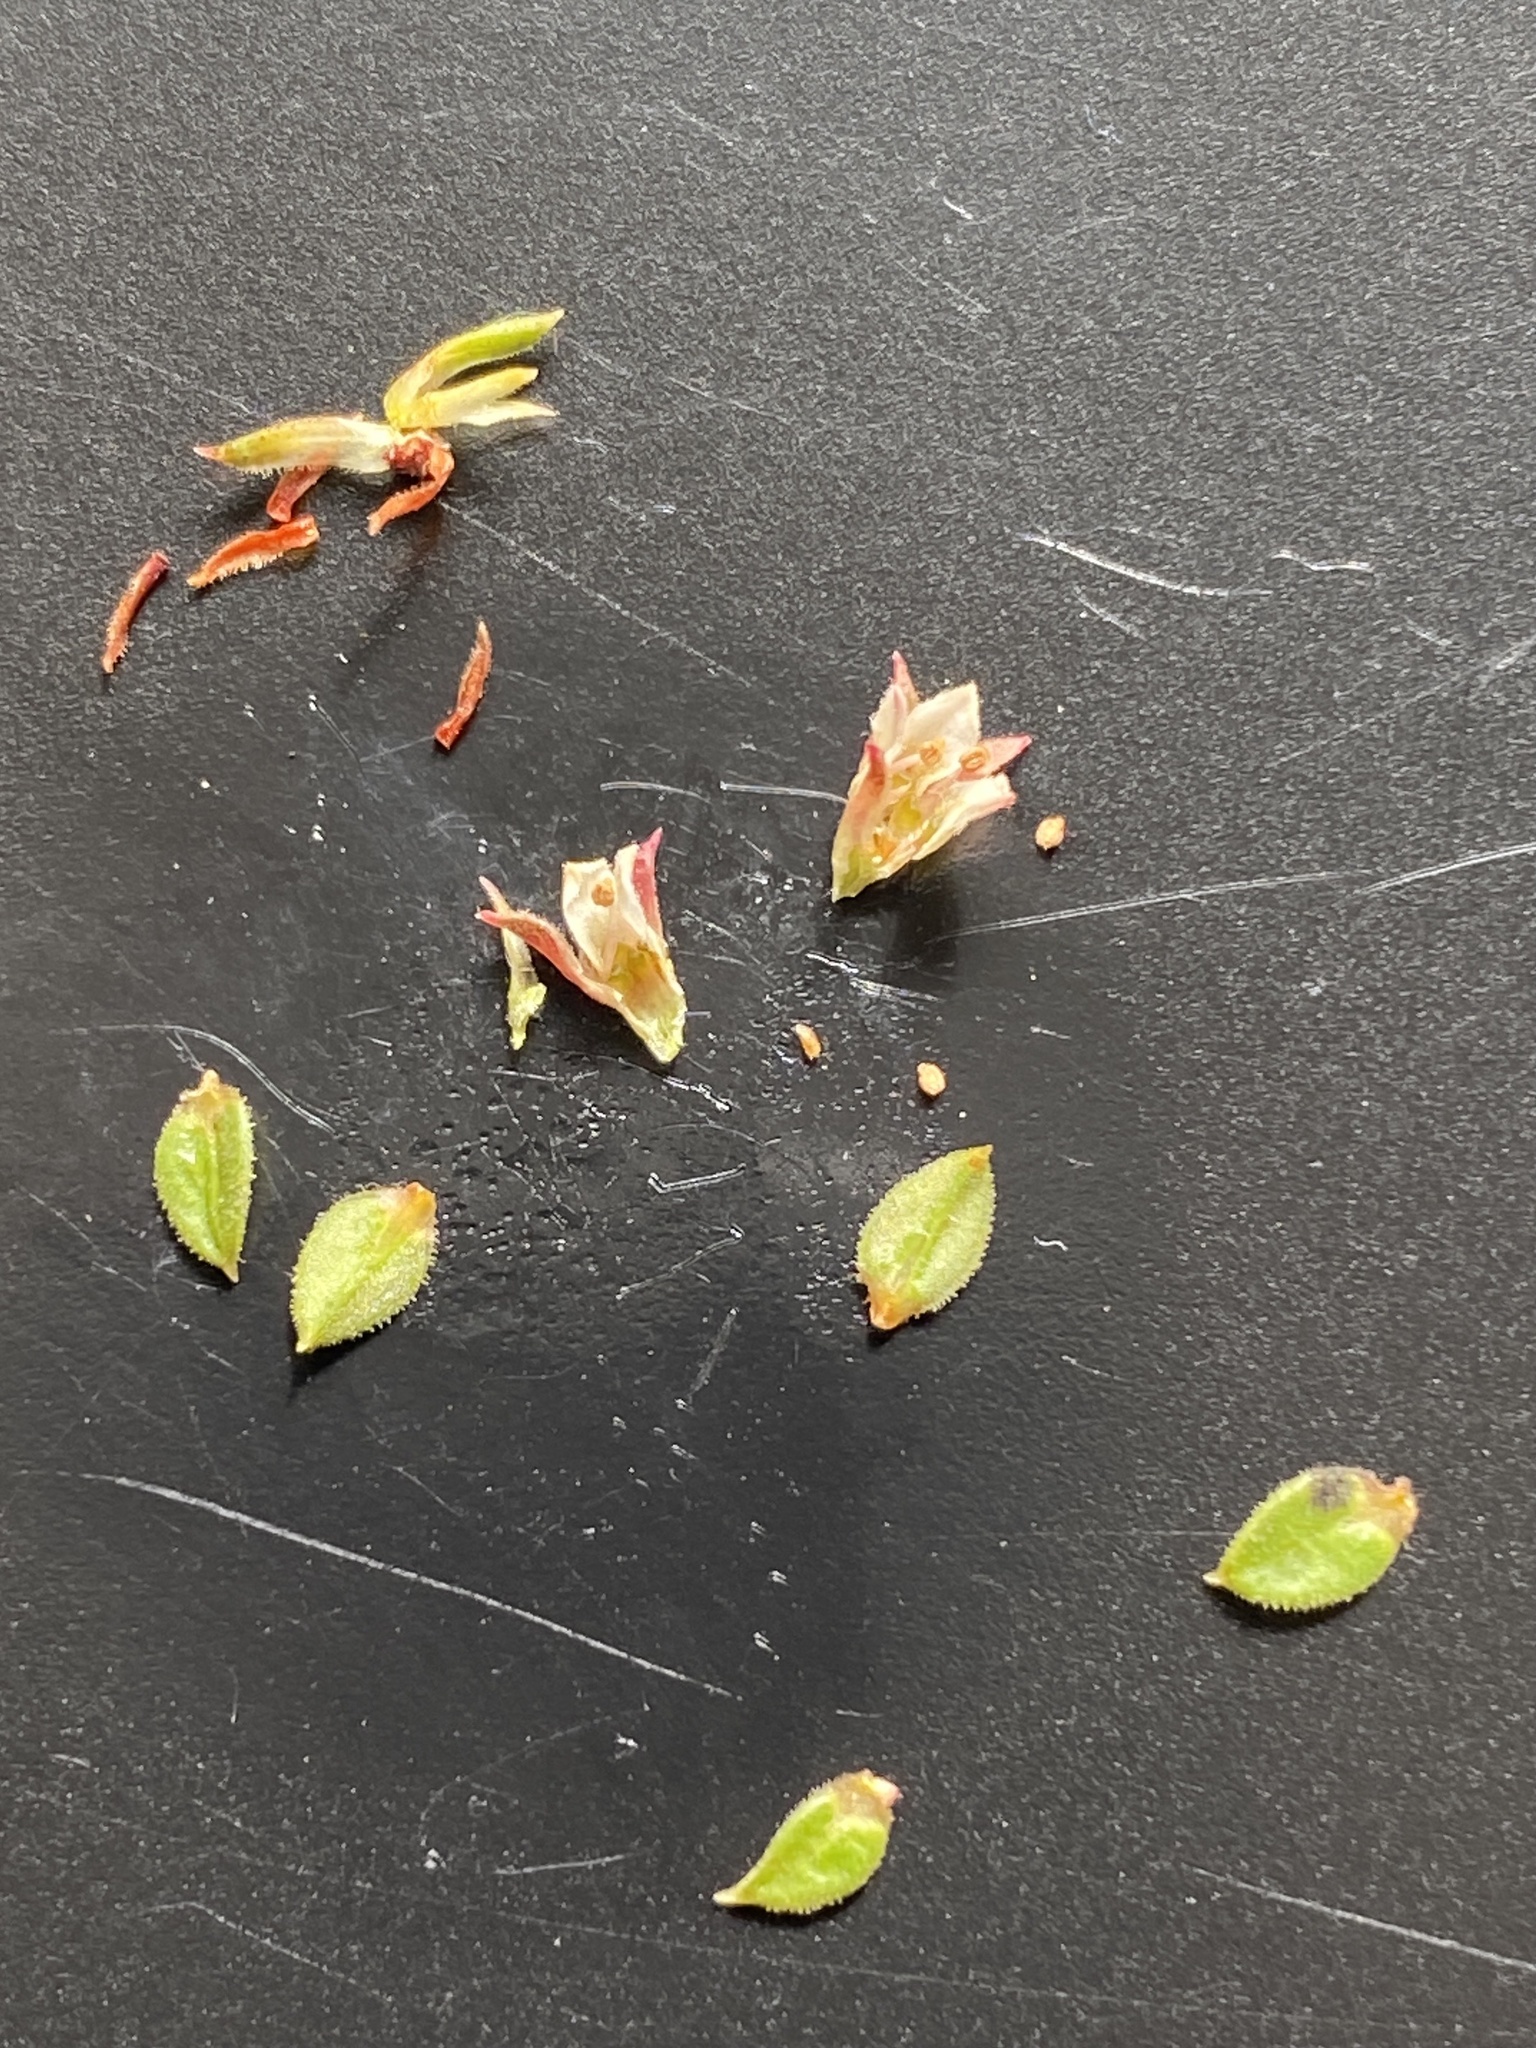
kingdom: Plantae
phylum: Tracheophyta
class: Magnoliopsida
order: Sapindales
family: Rutaceae
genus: Diosma
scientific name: Diosma echinulata
